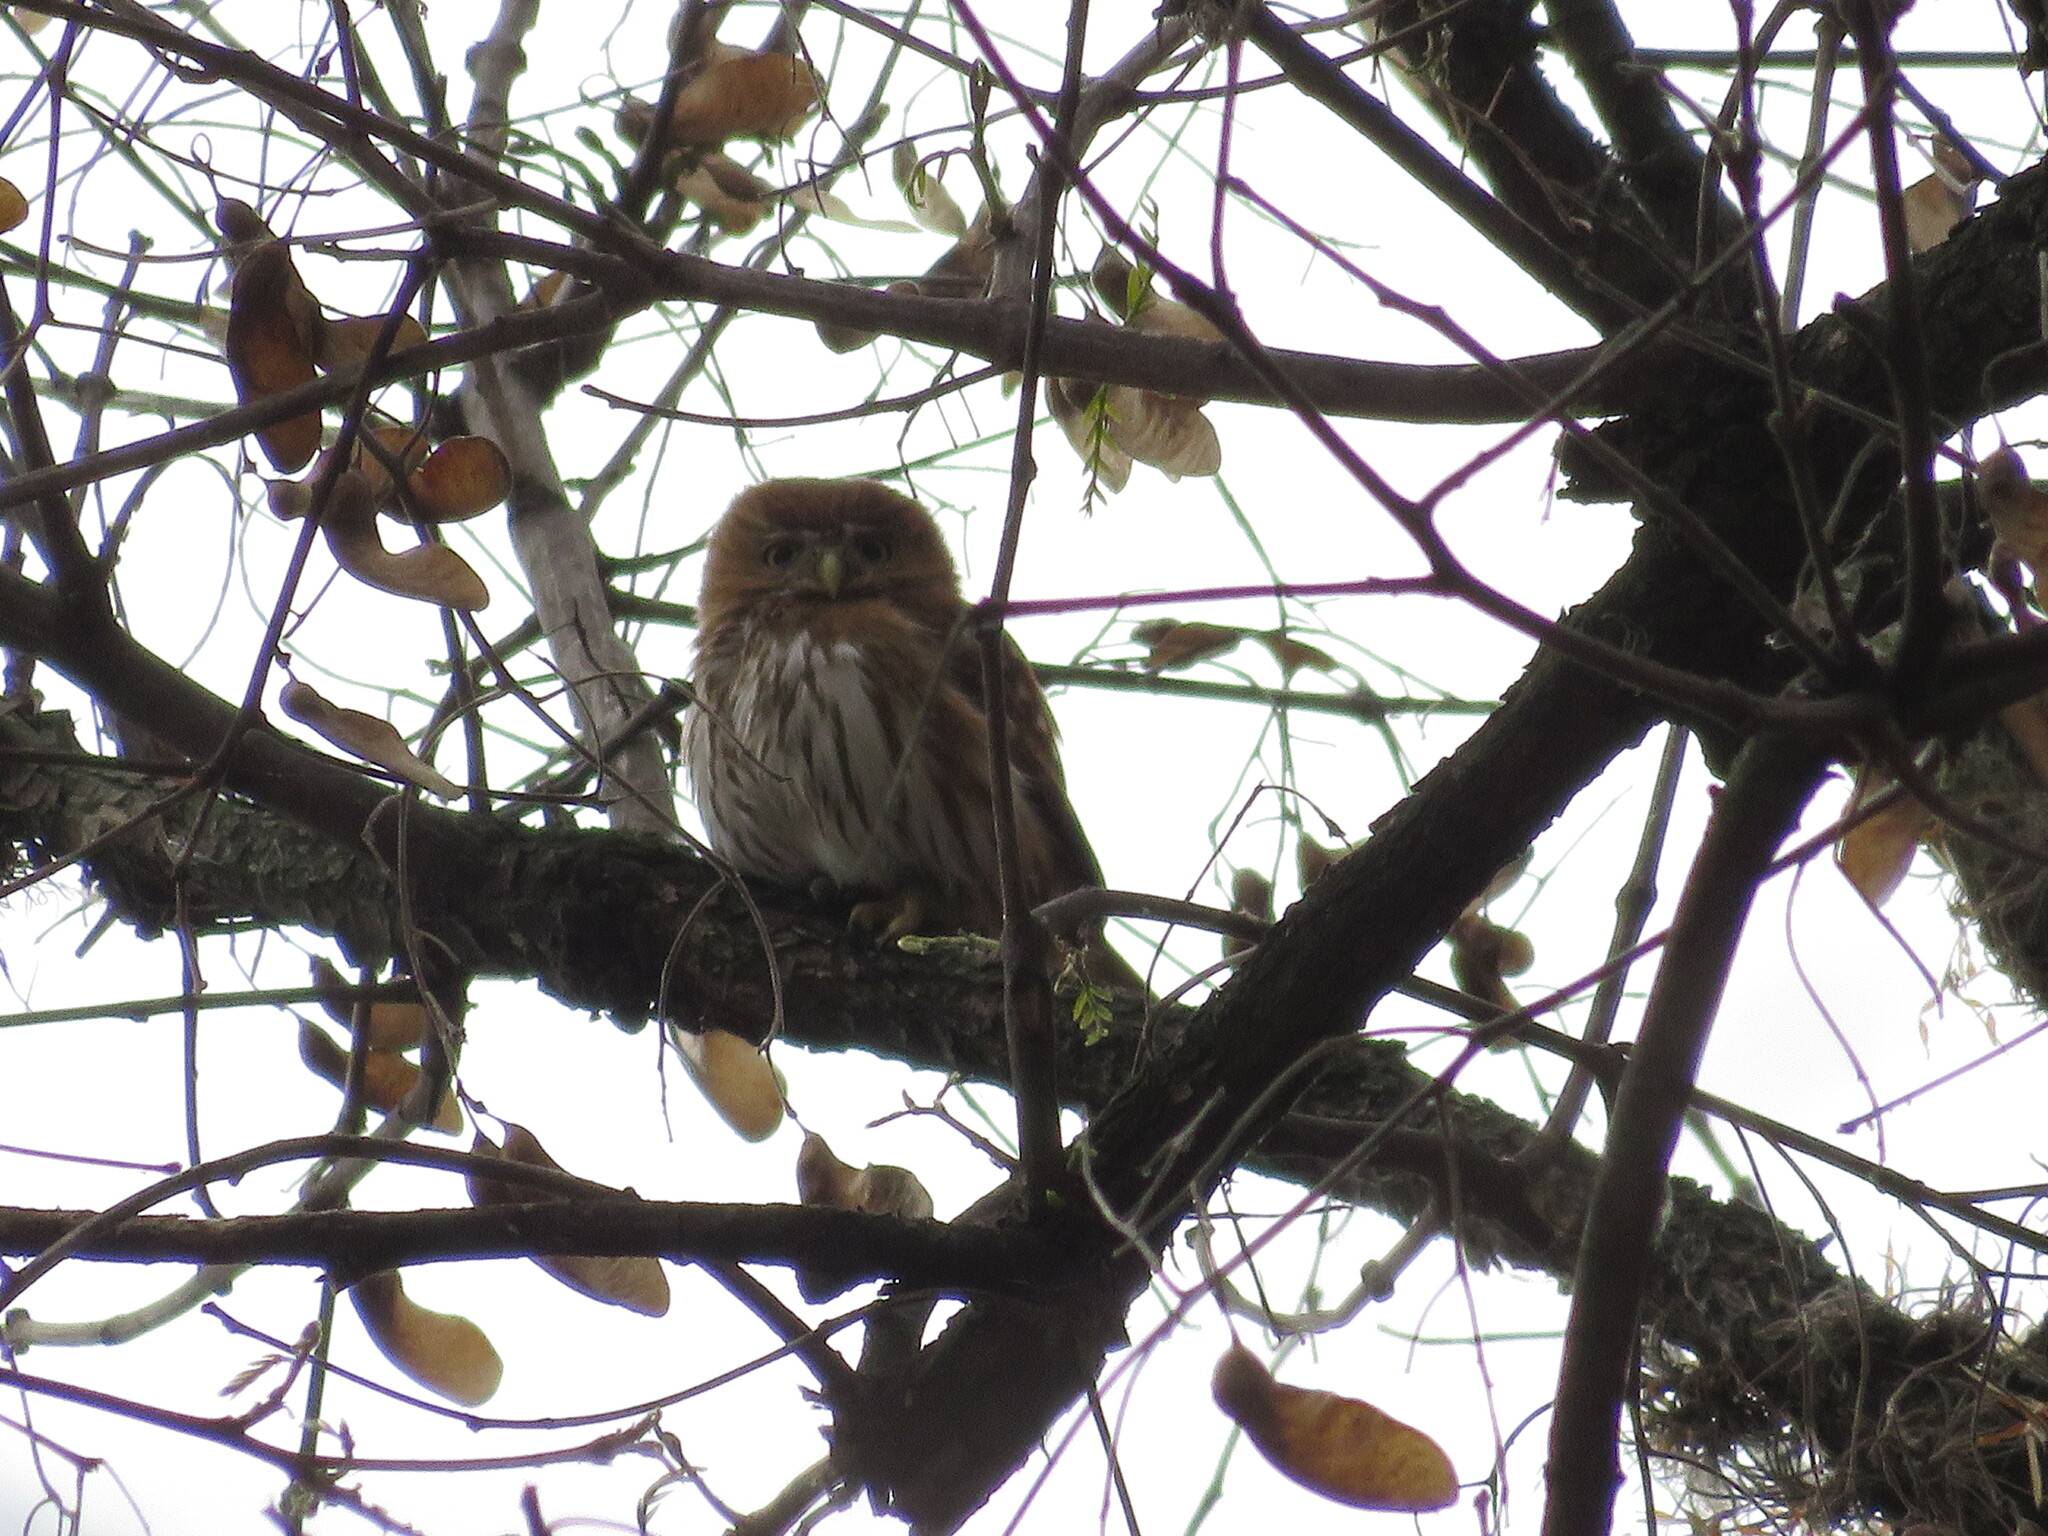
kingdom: Animalia
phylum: Chordata
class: Aves
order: Strigiformes
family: Strigidae
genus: Glaucidium
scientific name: Glaucidium brasilianum
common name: Ferruginous pygmy-owl
